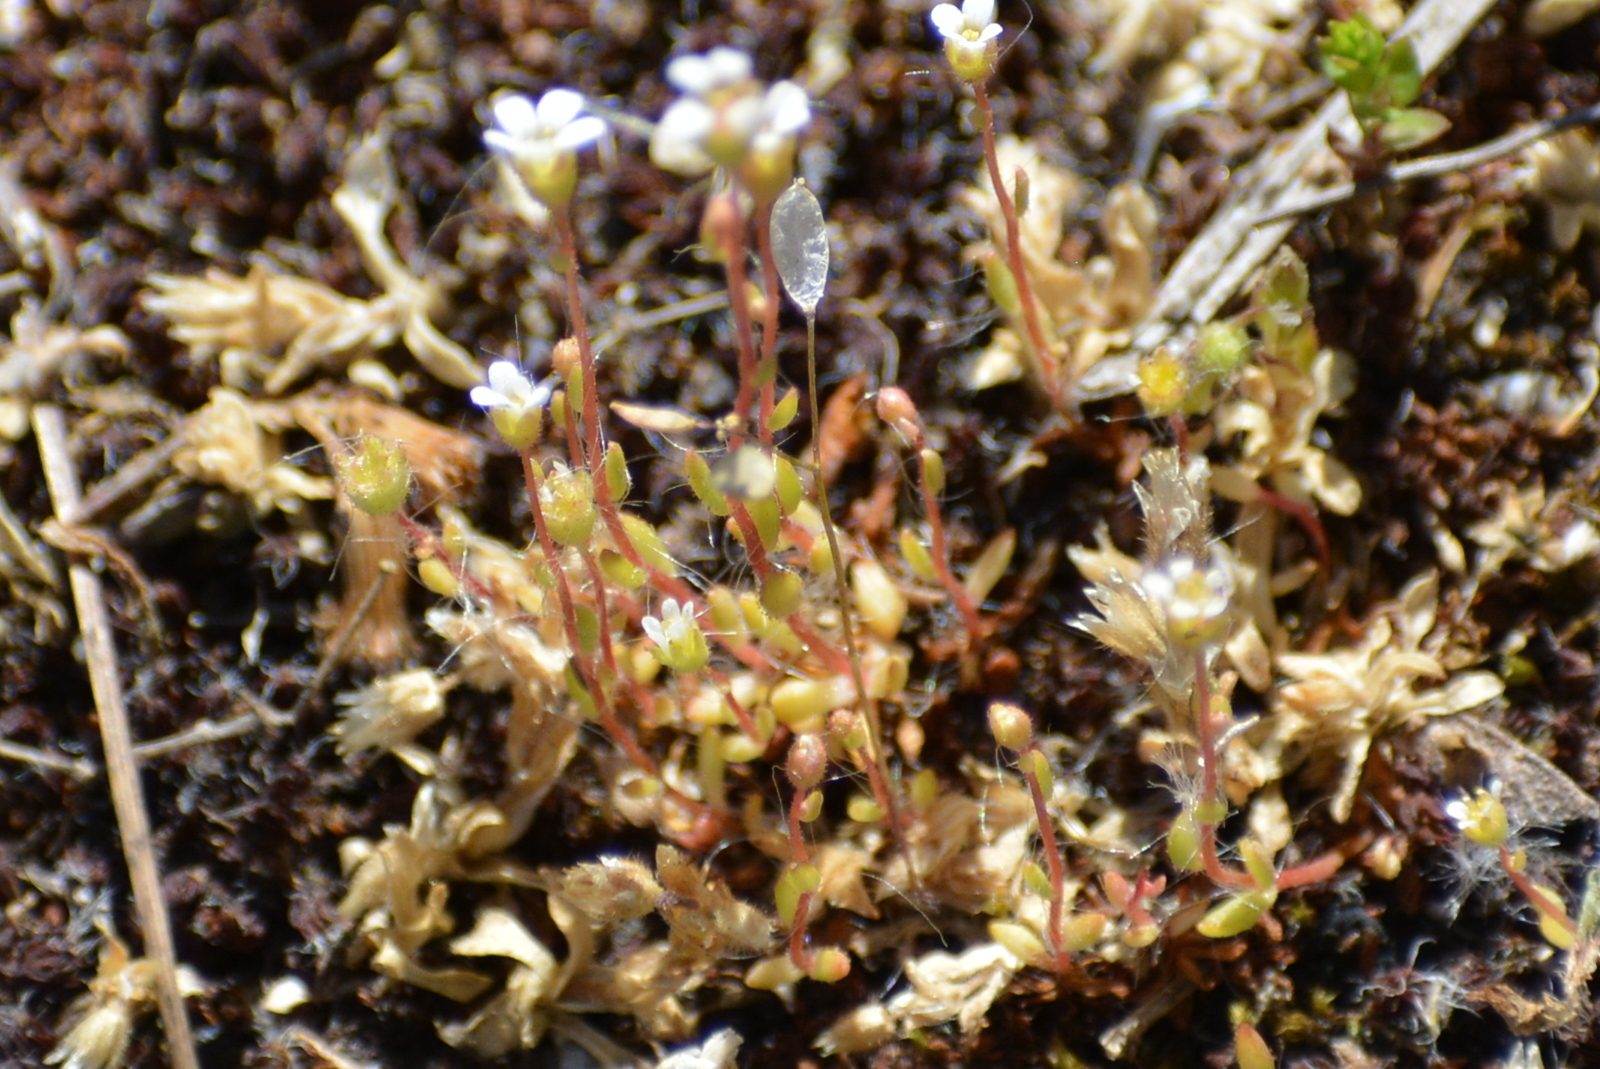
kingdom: Plantae
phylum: Tracheophyta
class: Magnoliopsida
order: Saxifragales
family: Saxifragaceae
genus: Saxifraga
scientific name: Saxifraga tridactylites
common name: Rue-leaved saxifrage
